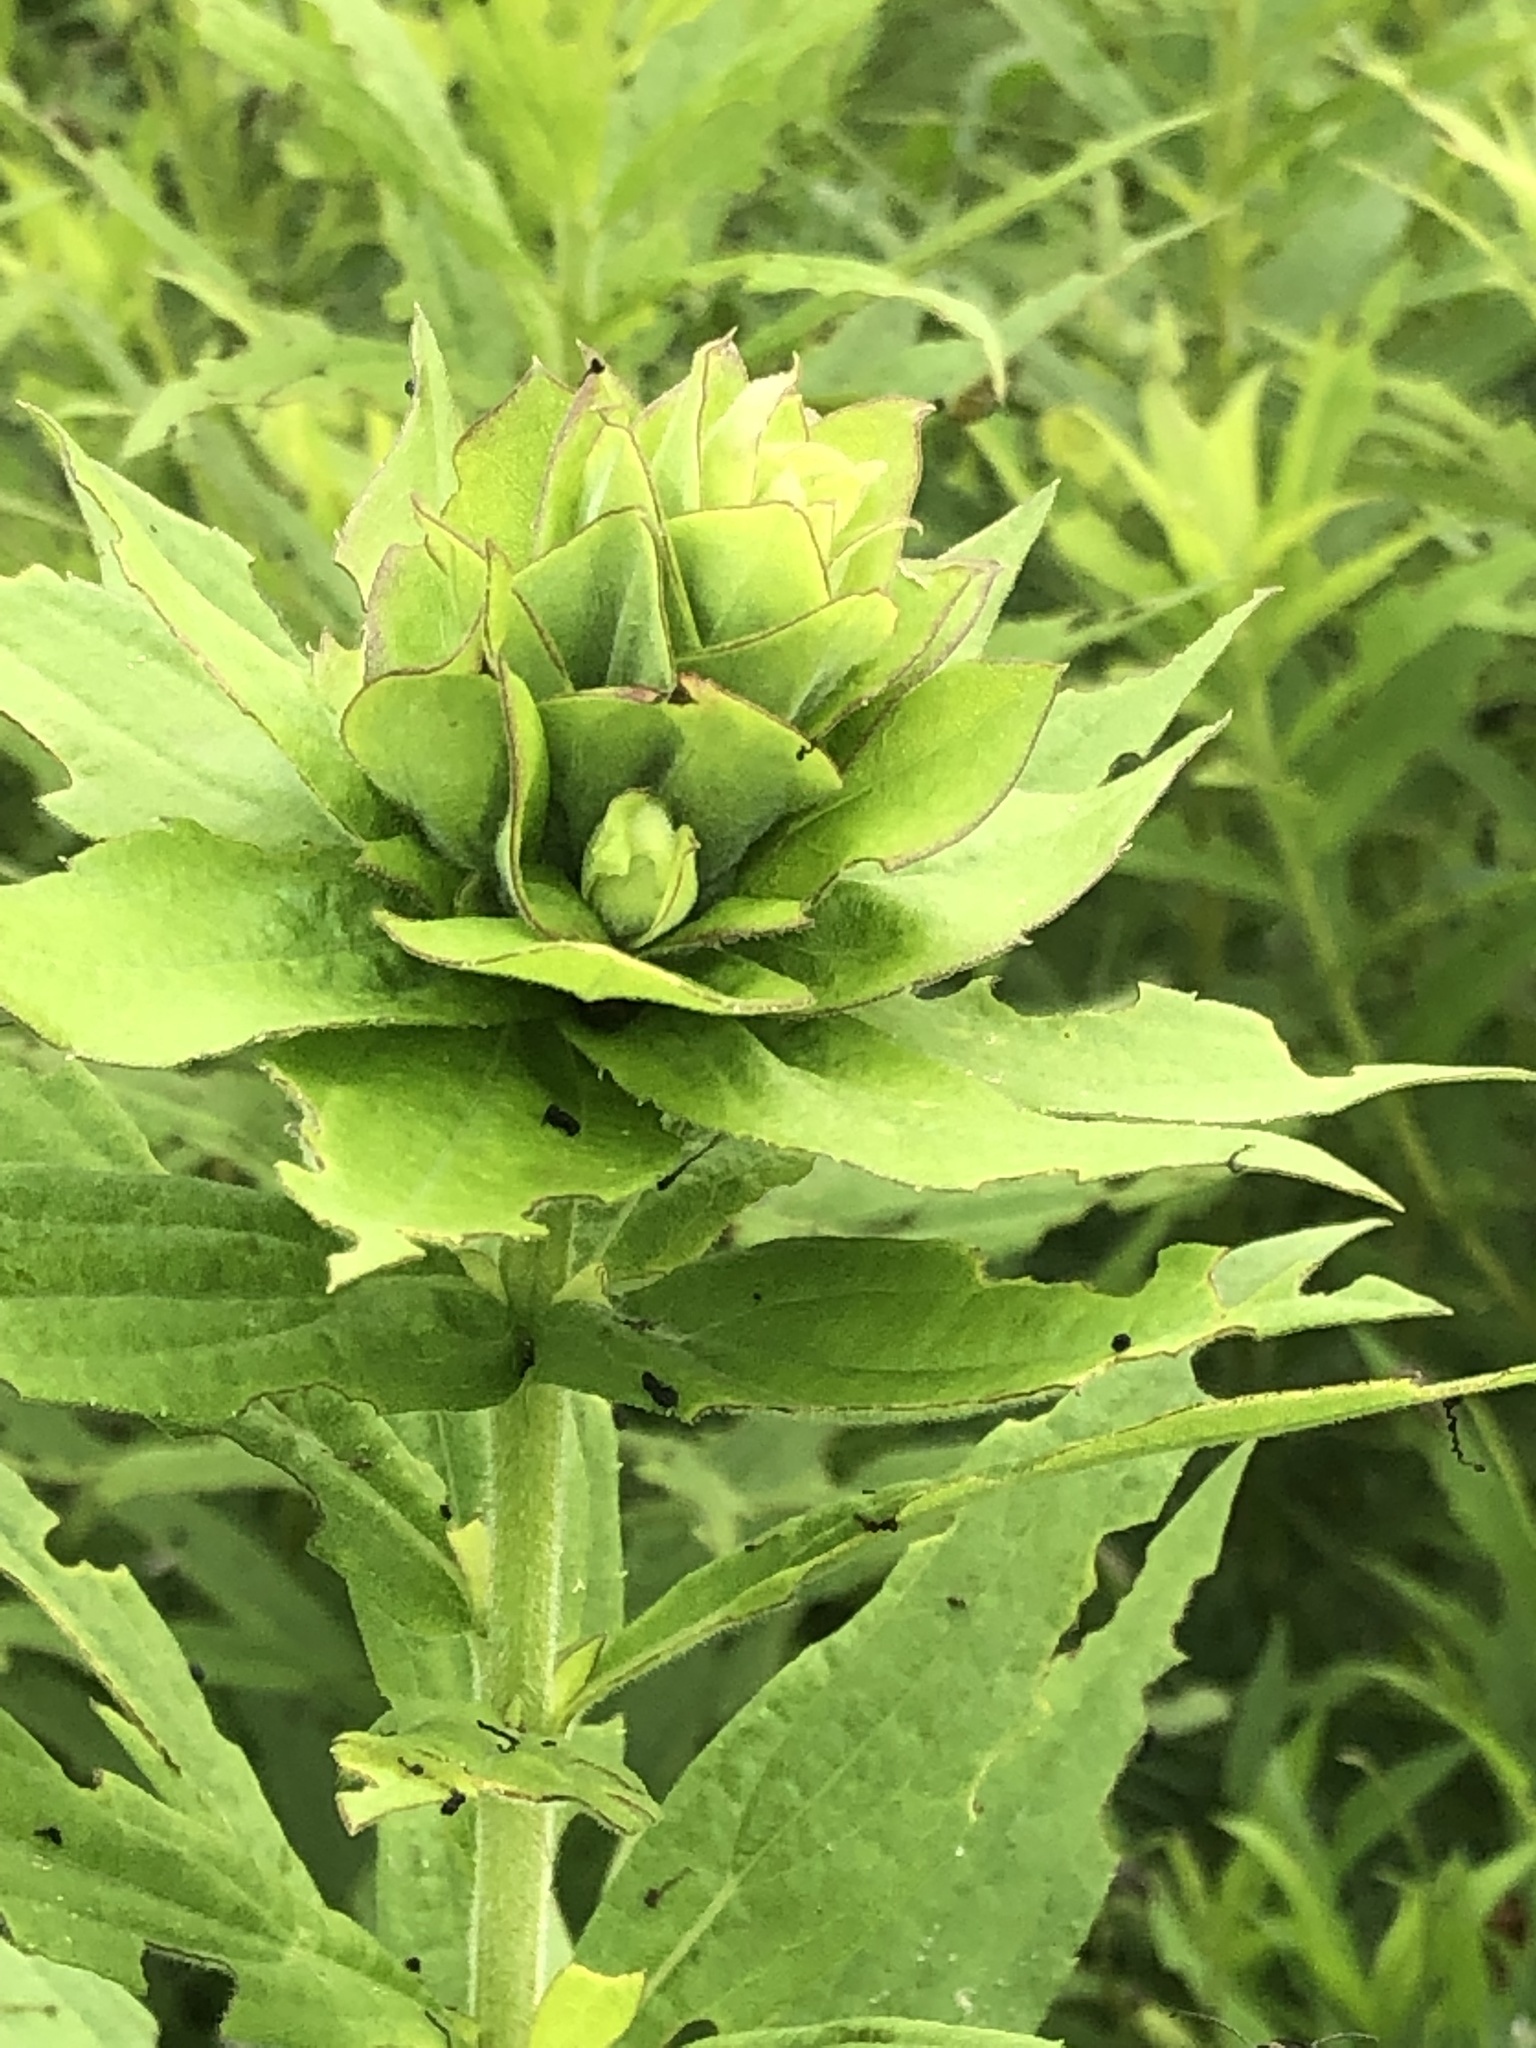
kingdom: Animalia
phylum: Arthropoda
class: Insecta
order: Diptera
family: Cecidomyiidae
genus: Rhopalomyia
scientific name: Rhopalomyia solidaginis
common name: Goldenrod bunch gall midge
